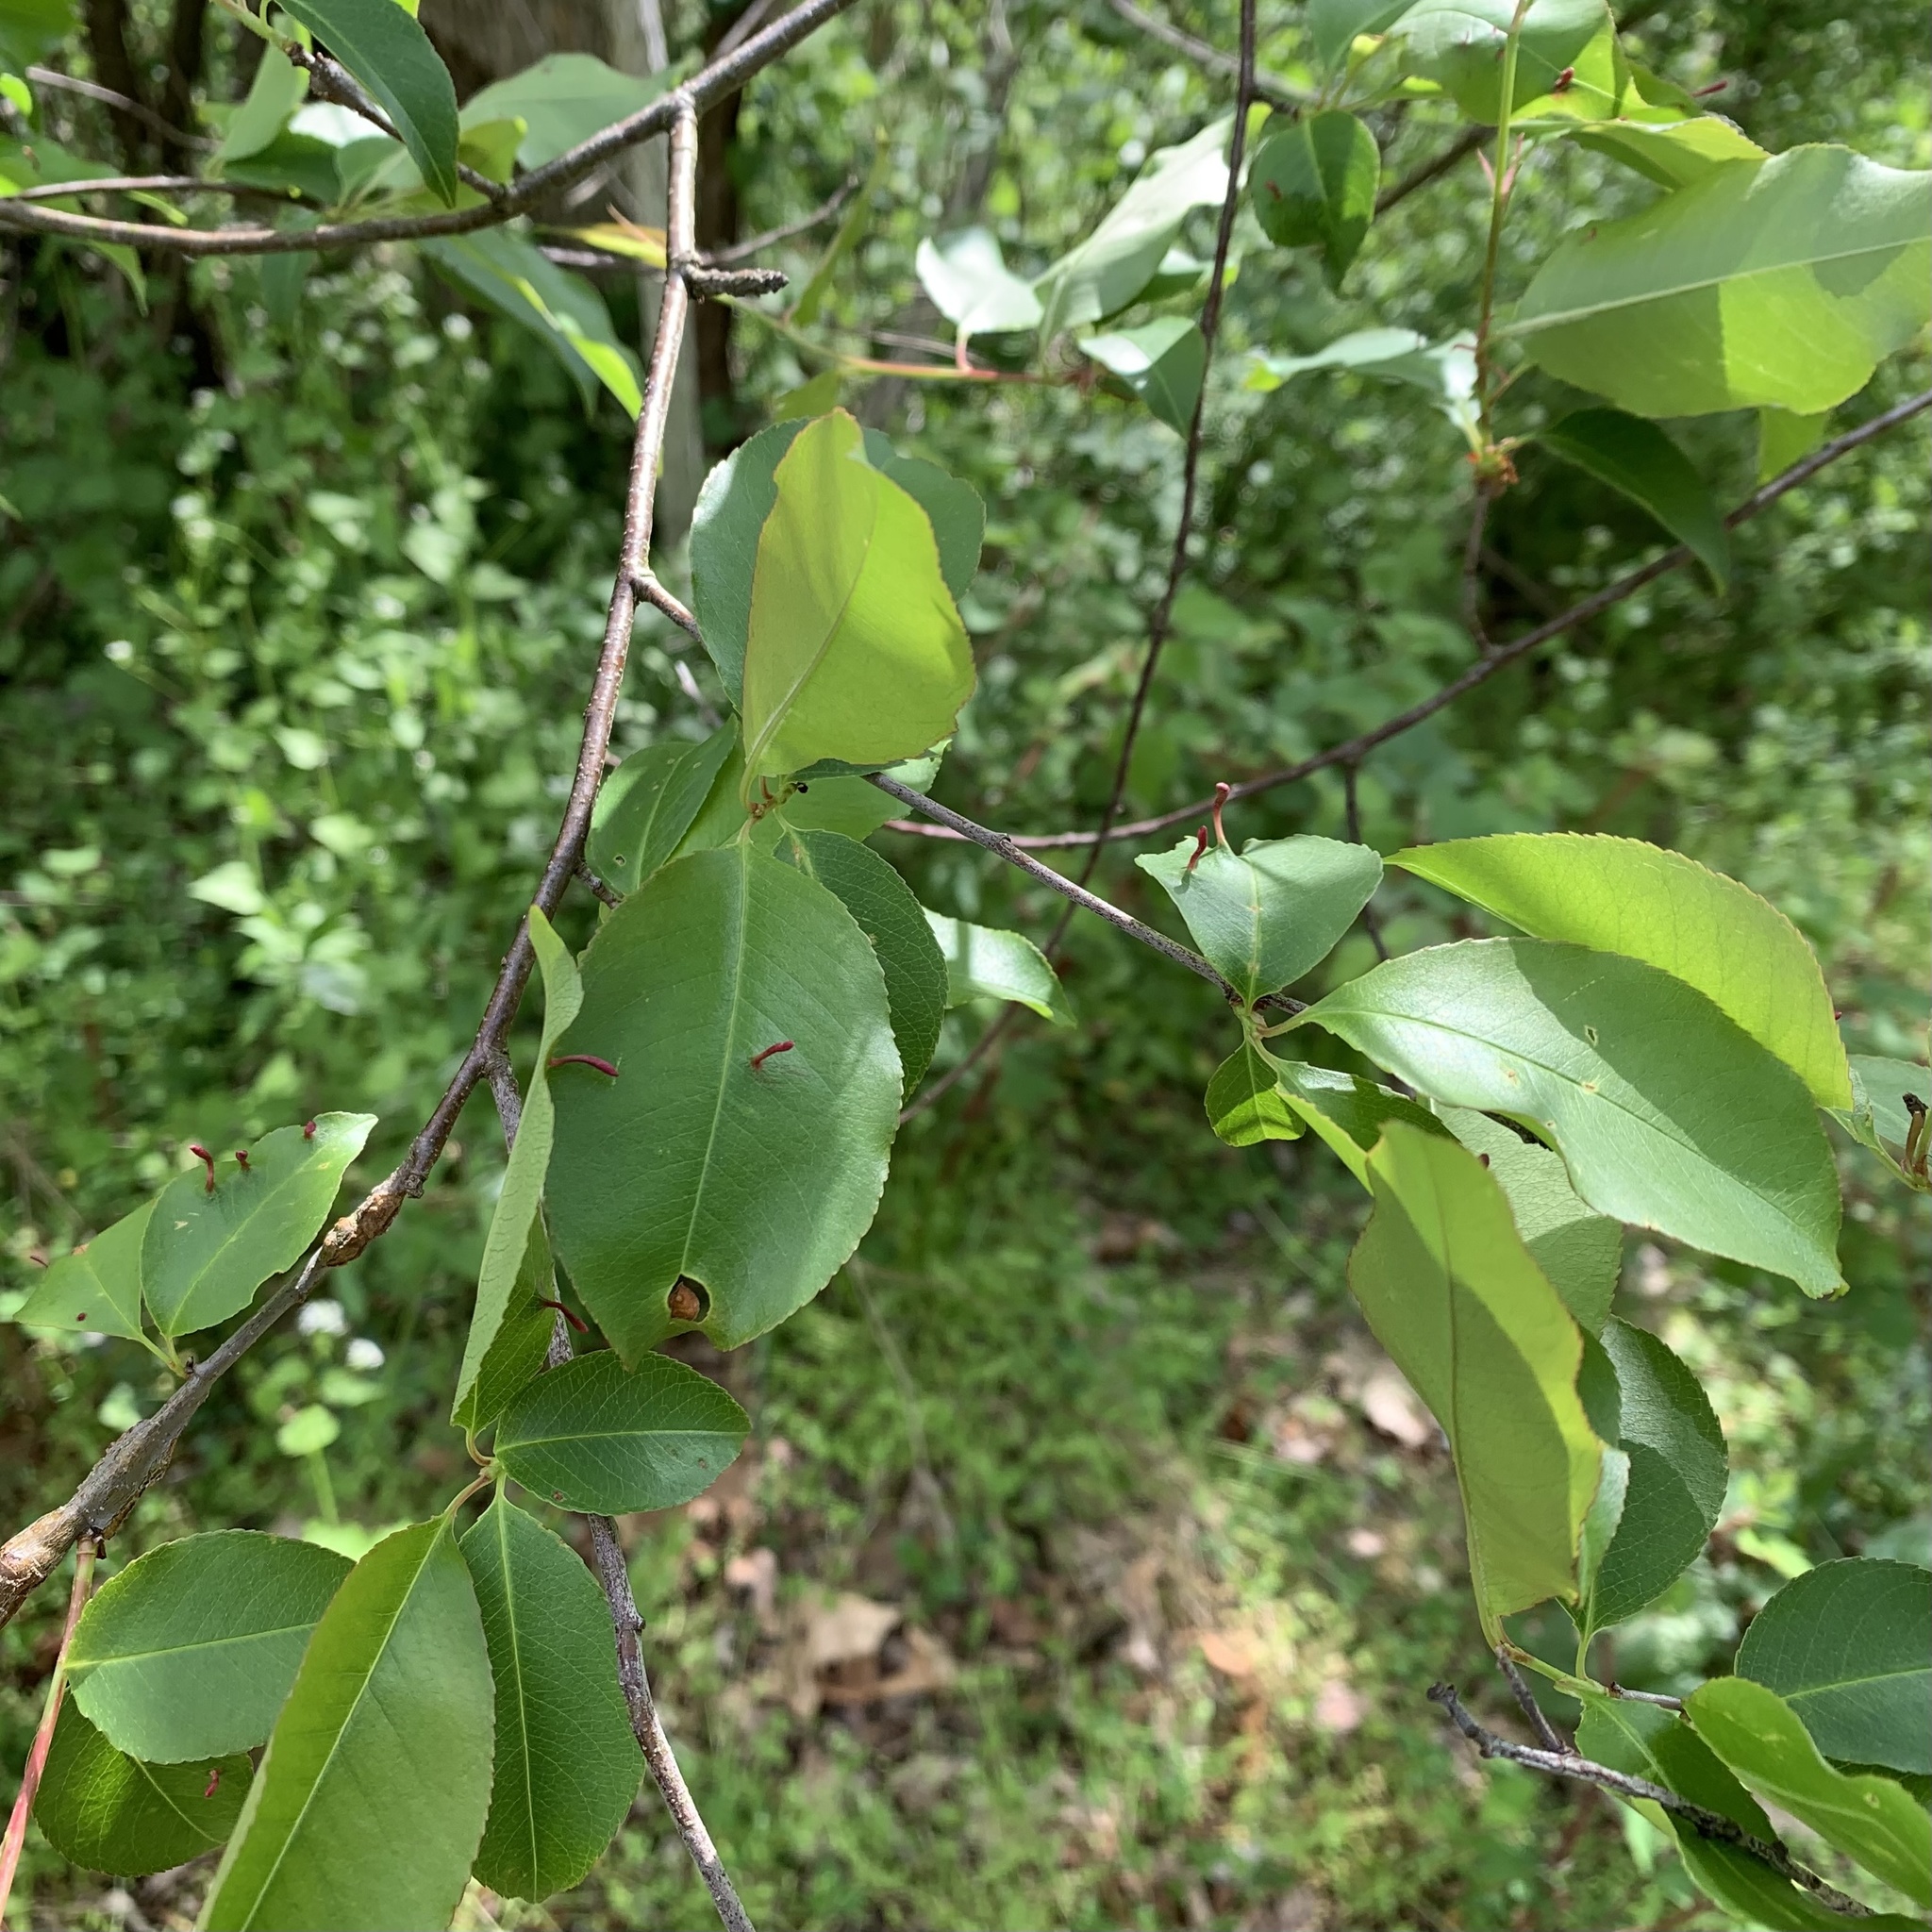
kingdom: Animalia
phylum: Arthropoda
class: Arachnida
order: Trombidiformes
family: Eriophyidae
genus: Eriophyes
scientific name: Eriophyes
